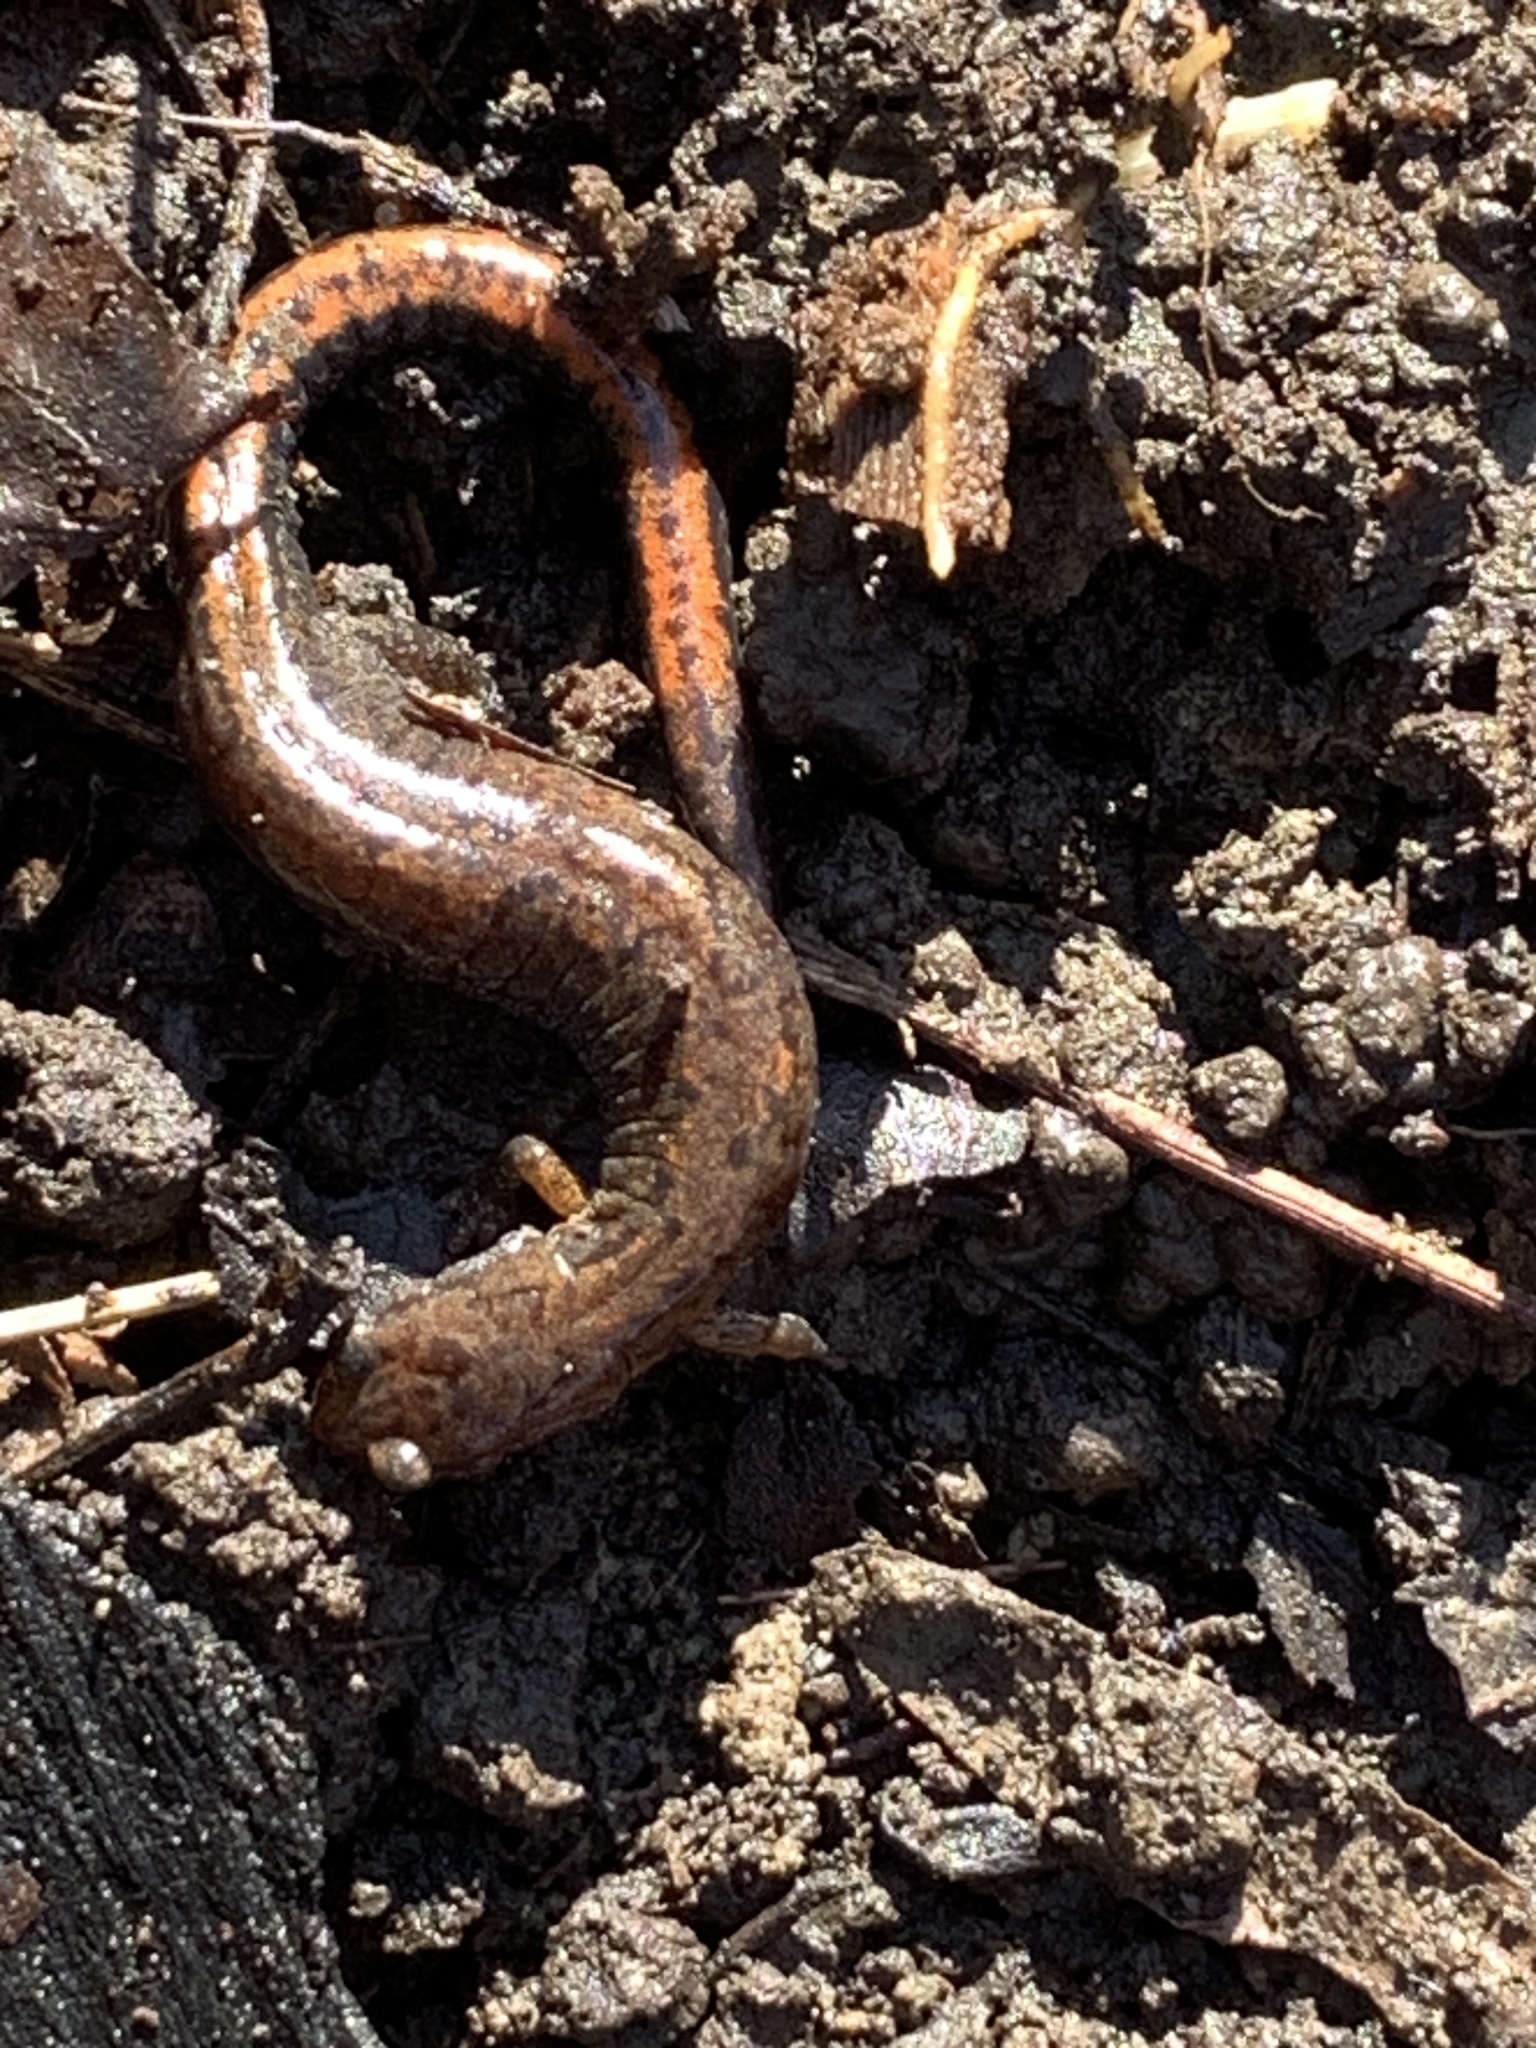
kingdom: Animalia
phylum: Chordata
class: Amphibia
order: Caudata
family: Plethodontidae
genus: Plethodon
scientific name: Plethodon dorsalis
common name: Northern zigzag salamander
